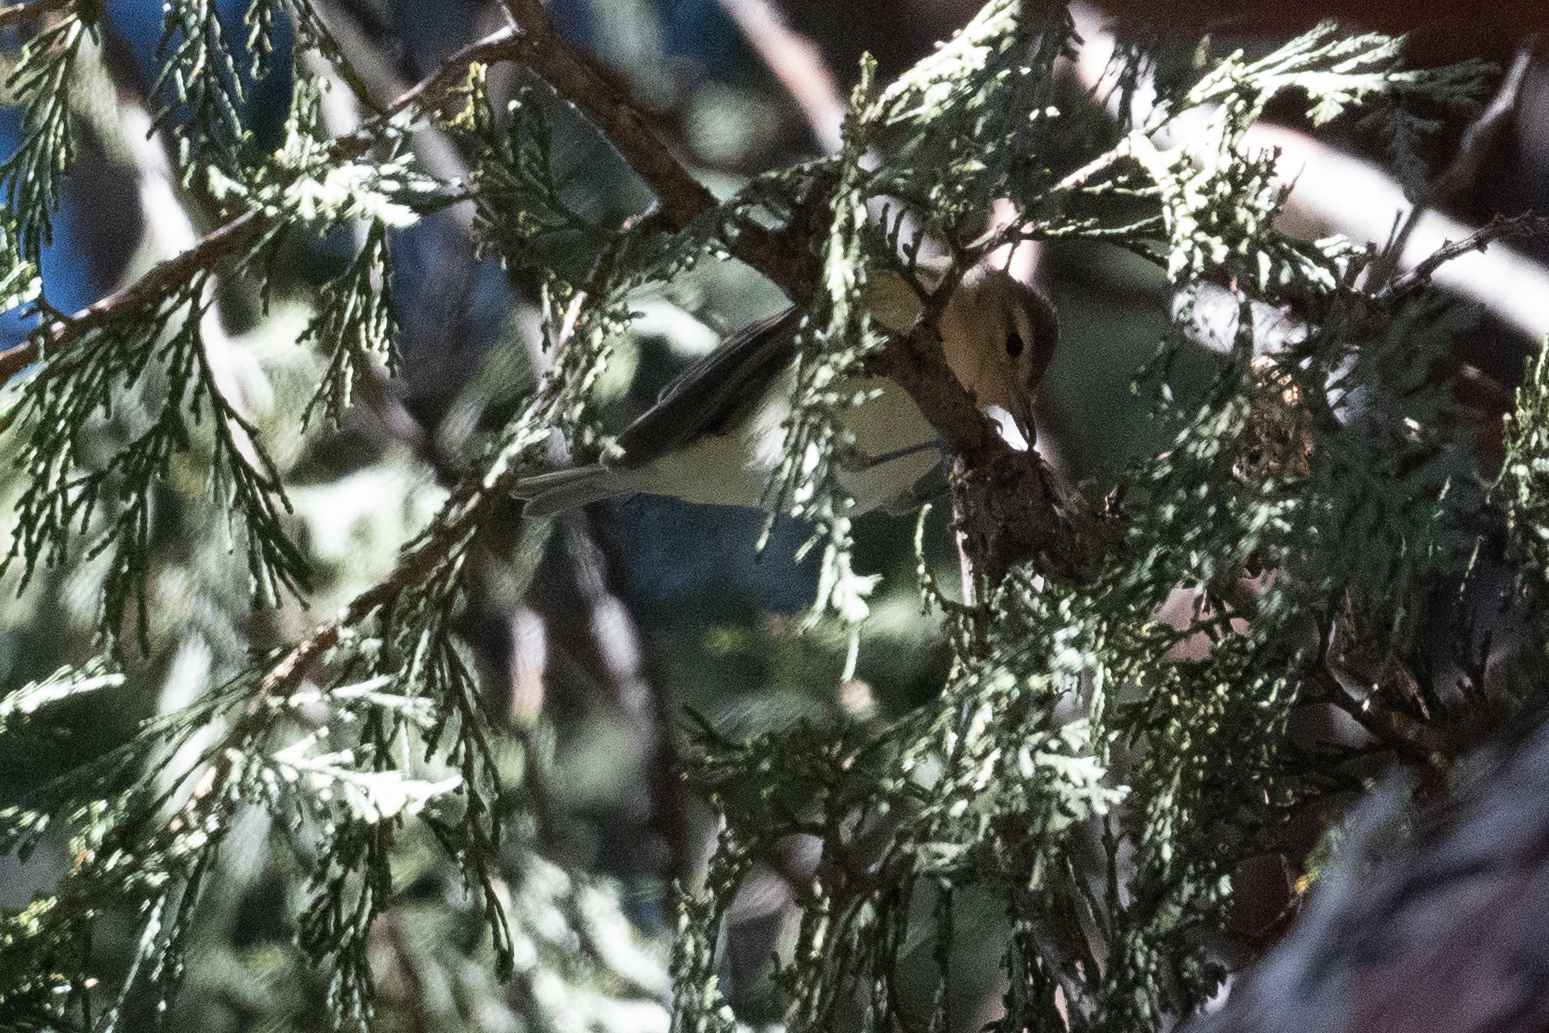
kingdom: Animalia
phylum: Chordata
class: Aves
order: Passeriformes
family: Vireonidae
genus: Vireo
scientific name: Vireo gilvus
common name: Warbling vireo
